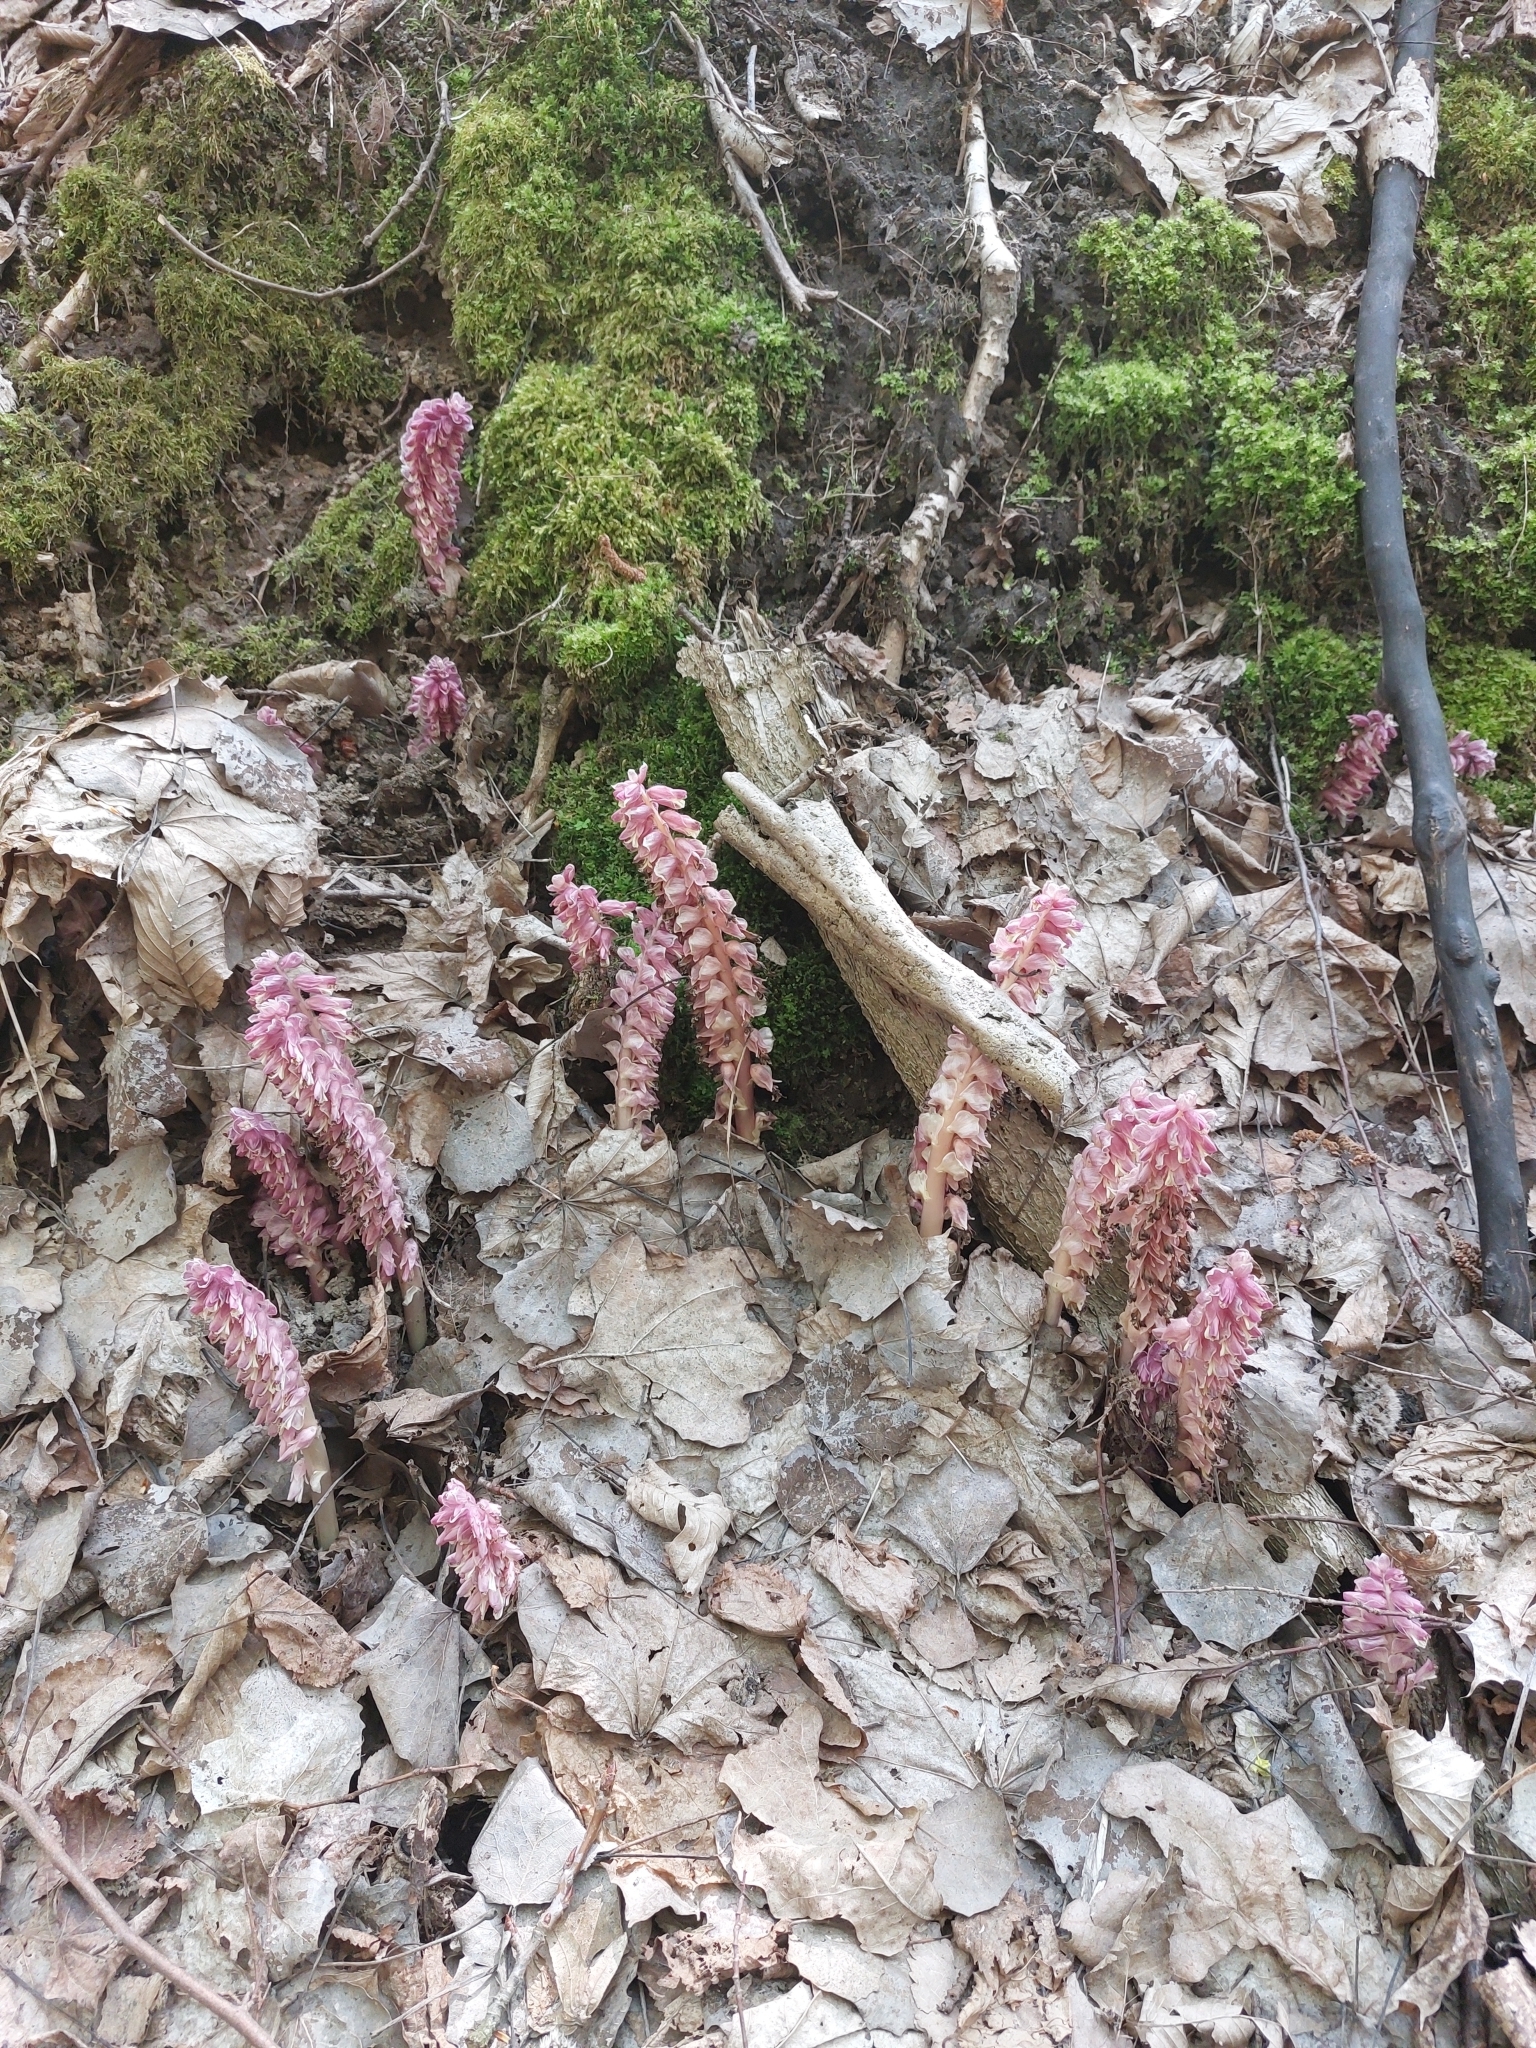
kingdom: Plantae
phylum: Tracheophyta
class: Magnoliopsida
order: Lamiales
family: Orobanchaceae
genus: Lathraea
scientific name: Lathraea squamaria
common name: Toothwort
